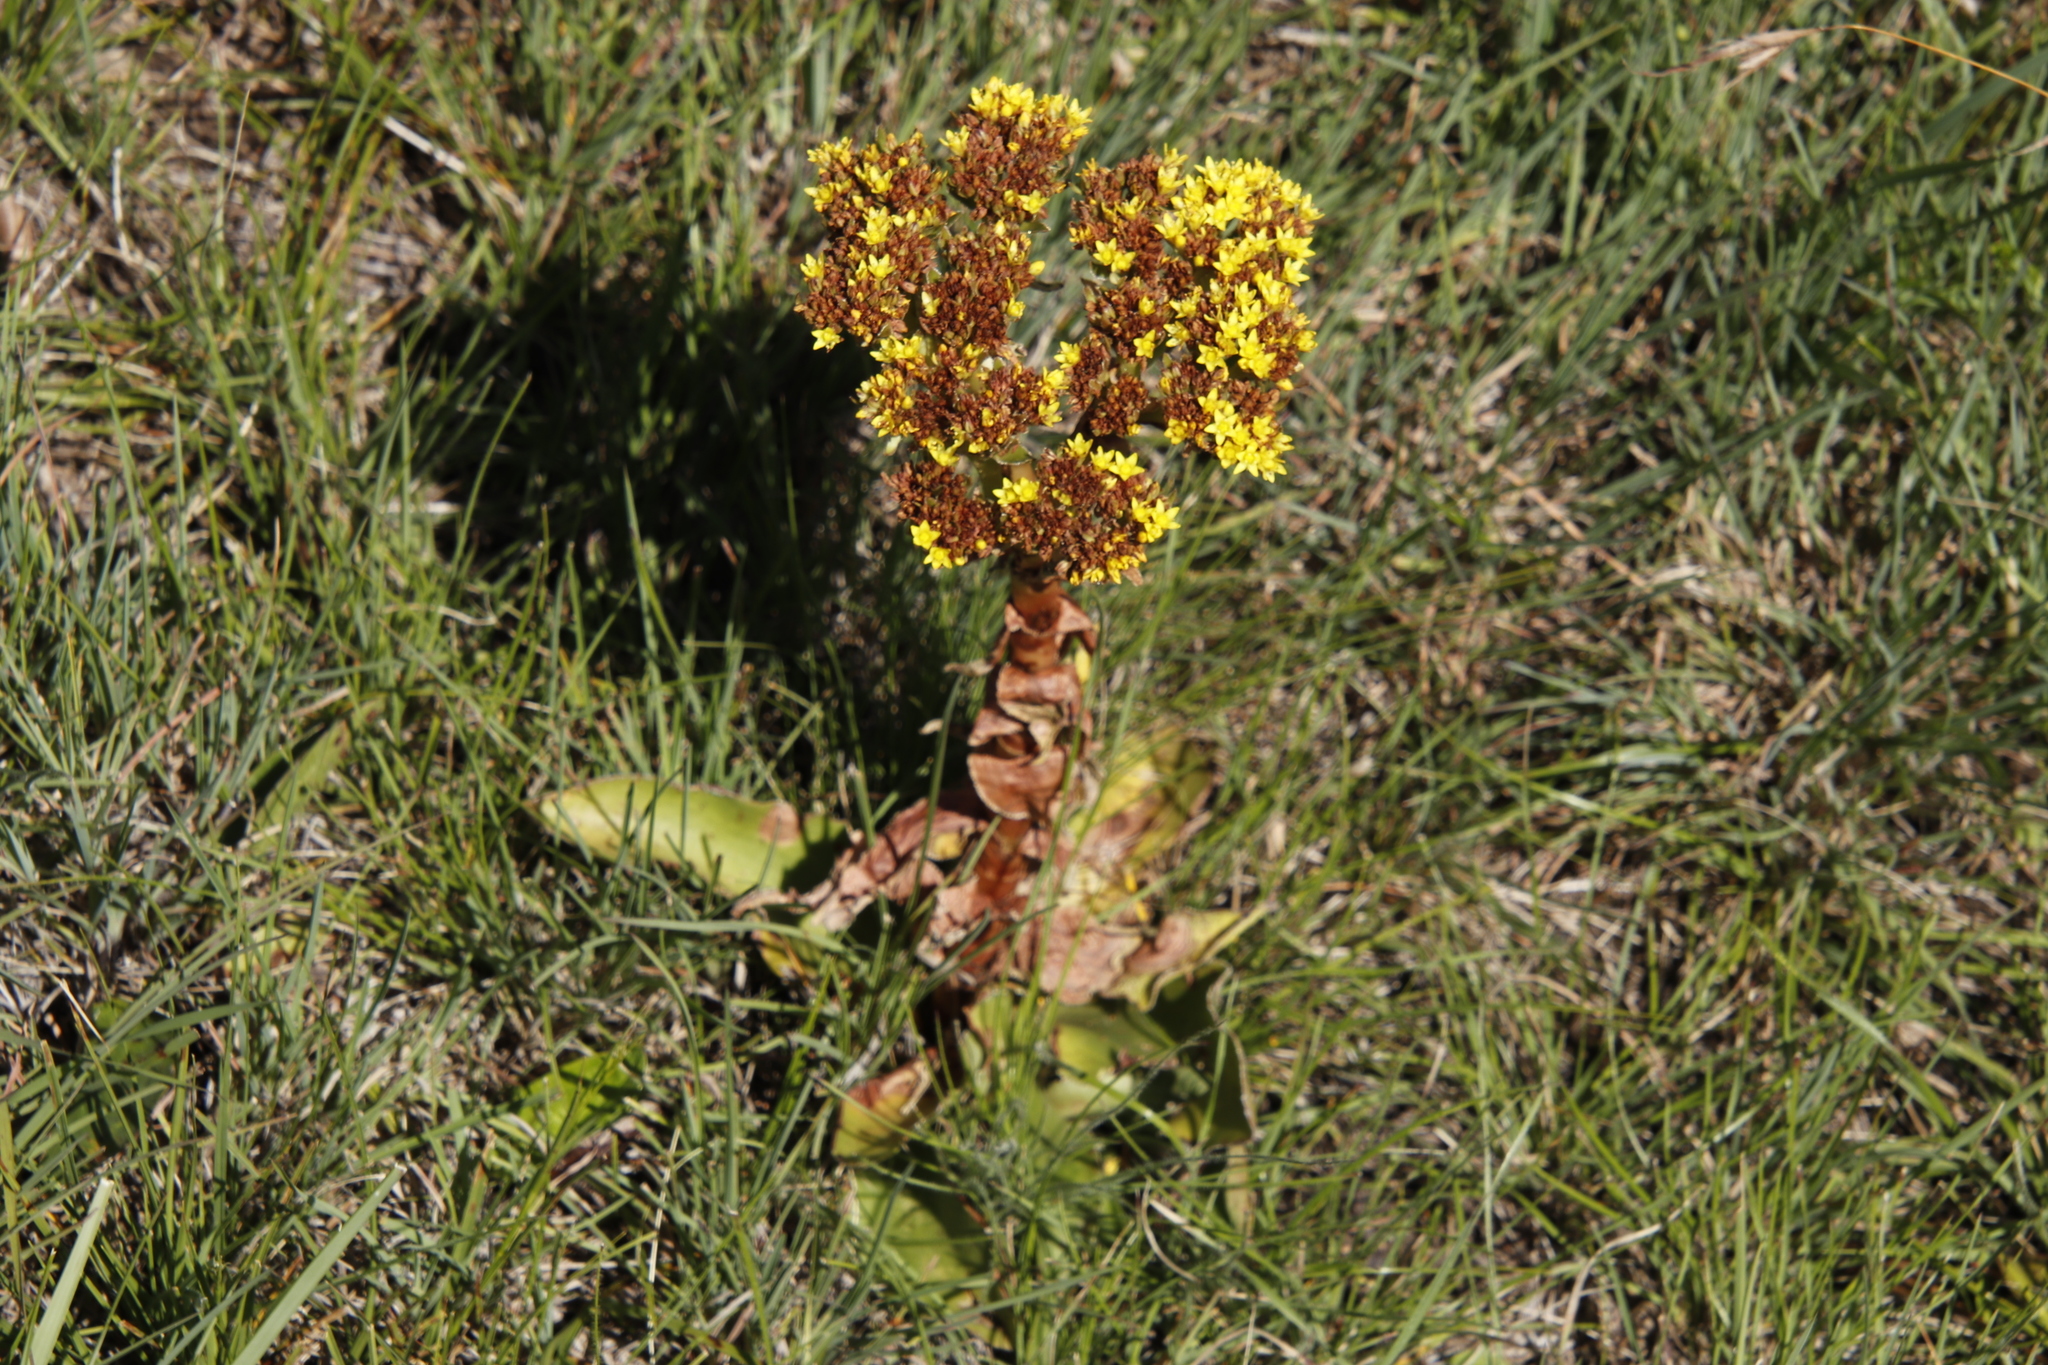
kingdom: Plantae
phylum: Tracheophyta
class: Magnoliopsida
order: Saxifragales
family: Crassulaceae
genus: Crassula
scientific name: Crassula vaginata
